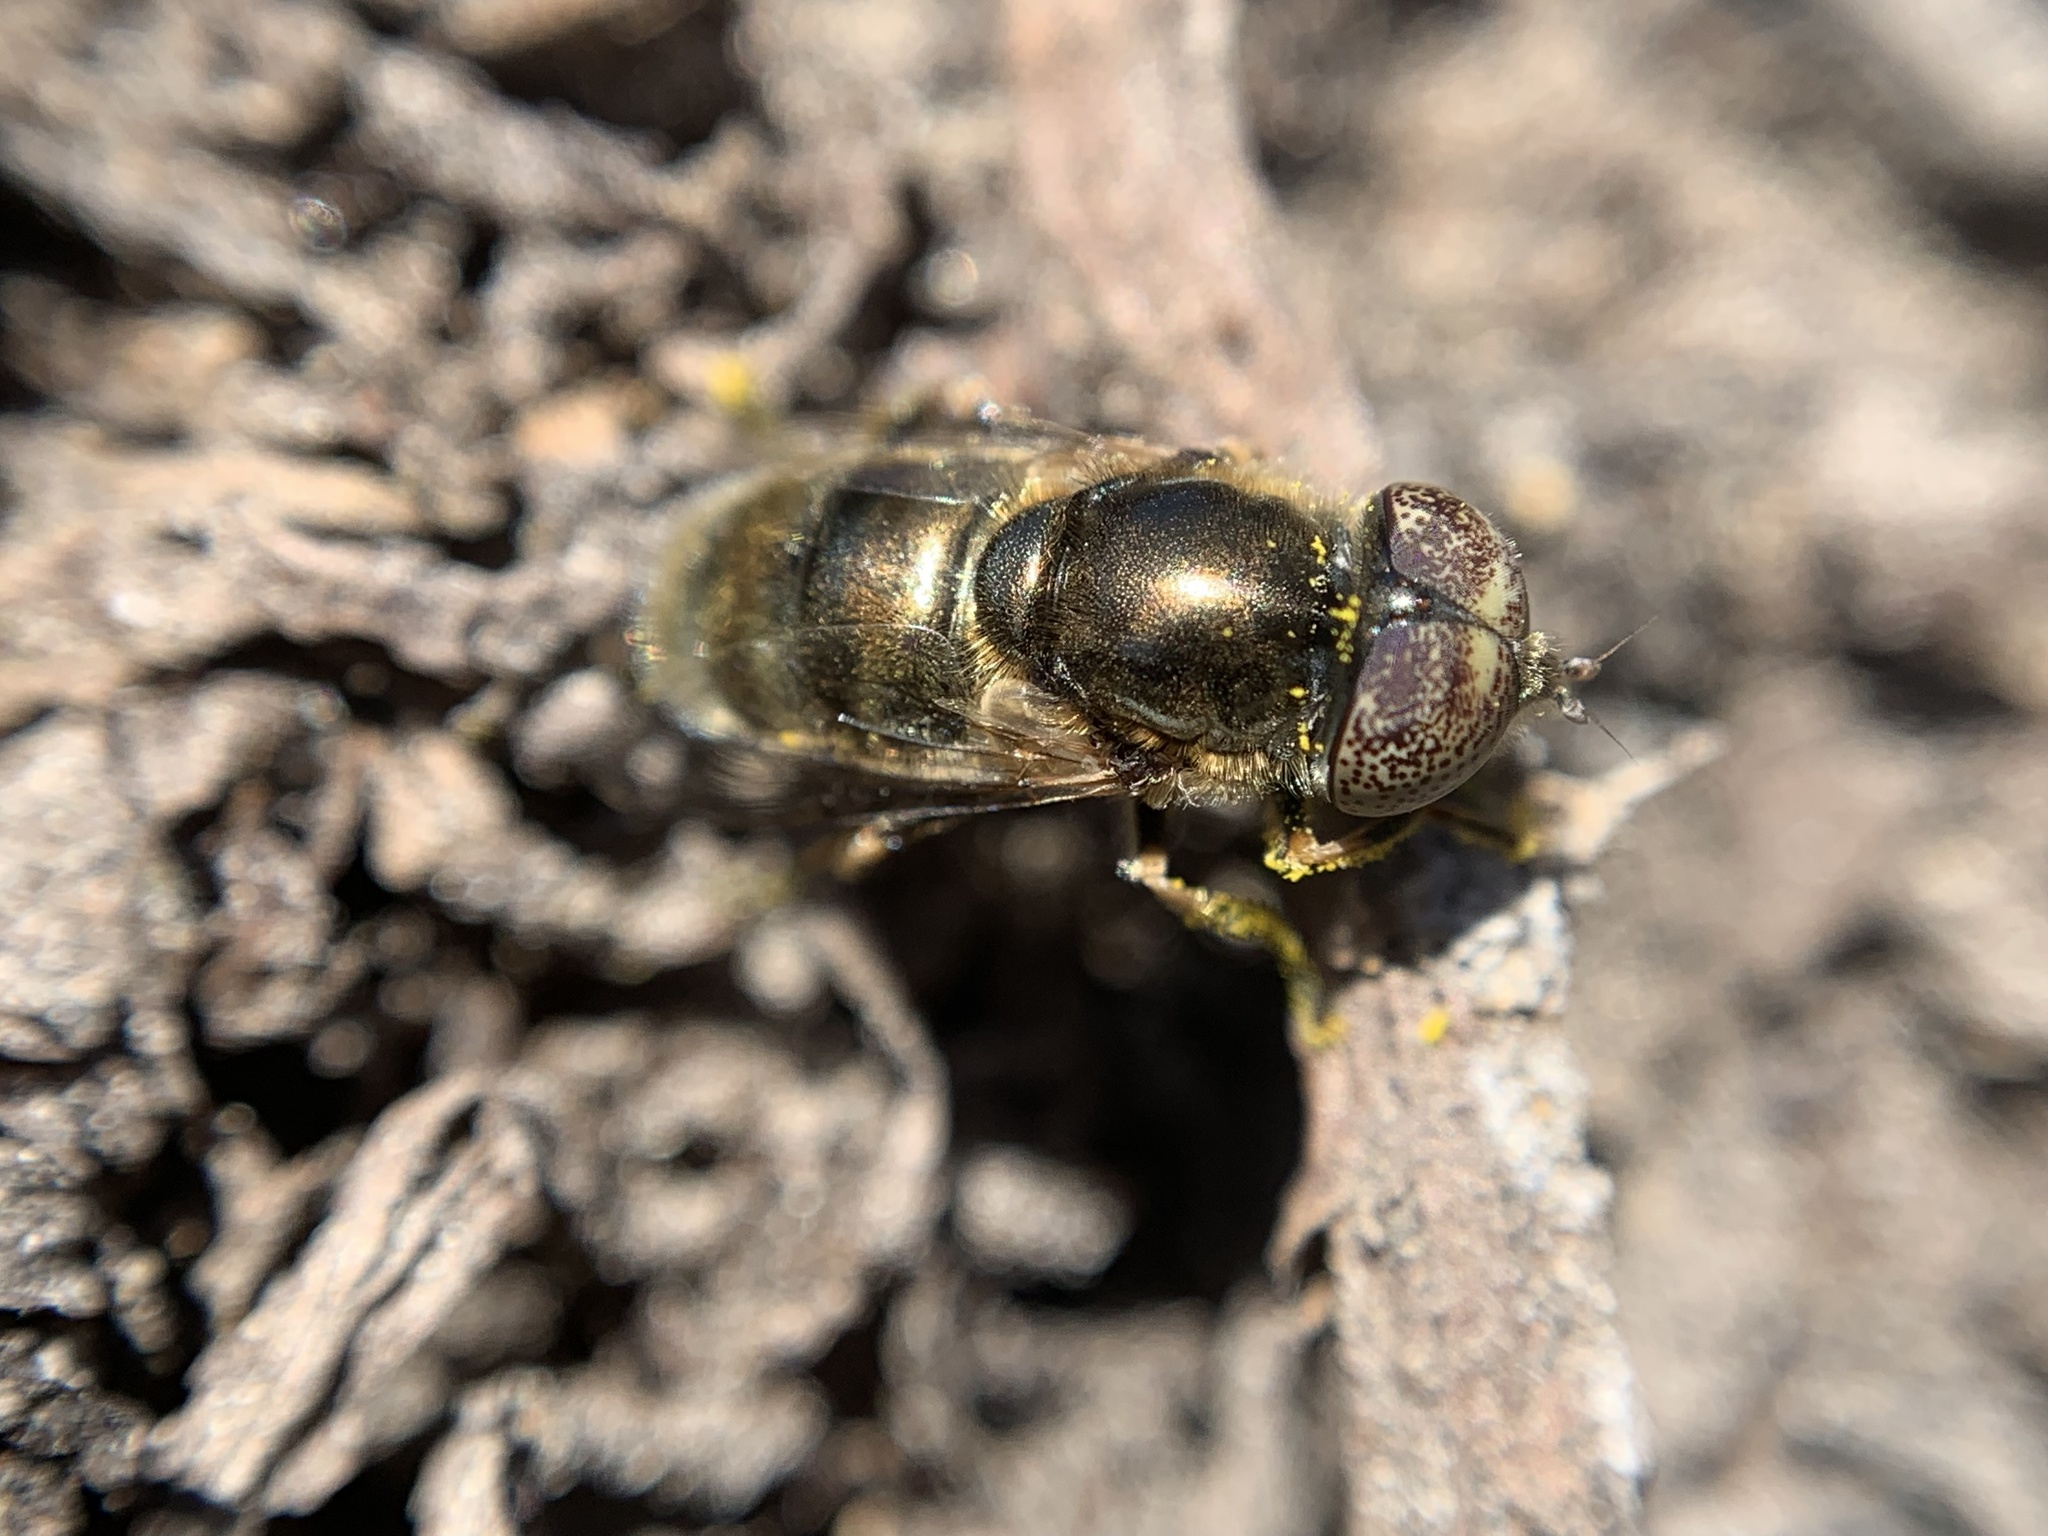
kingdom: Animalia
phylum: Arthropoda
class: Insecta
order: Diptera
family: Syrphidae
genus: Eristalinus
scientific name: Eristalinus aeneus
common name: Syrphid fly
